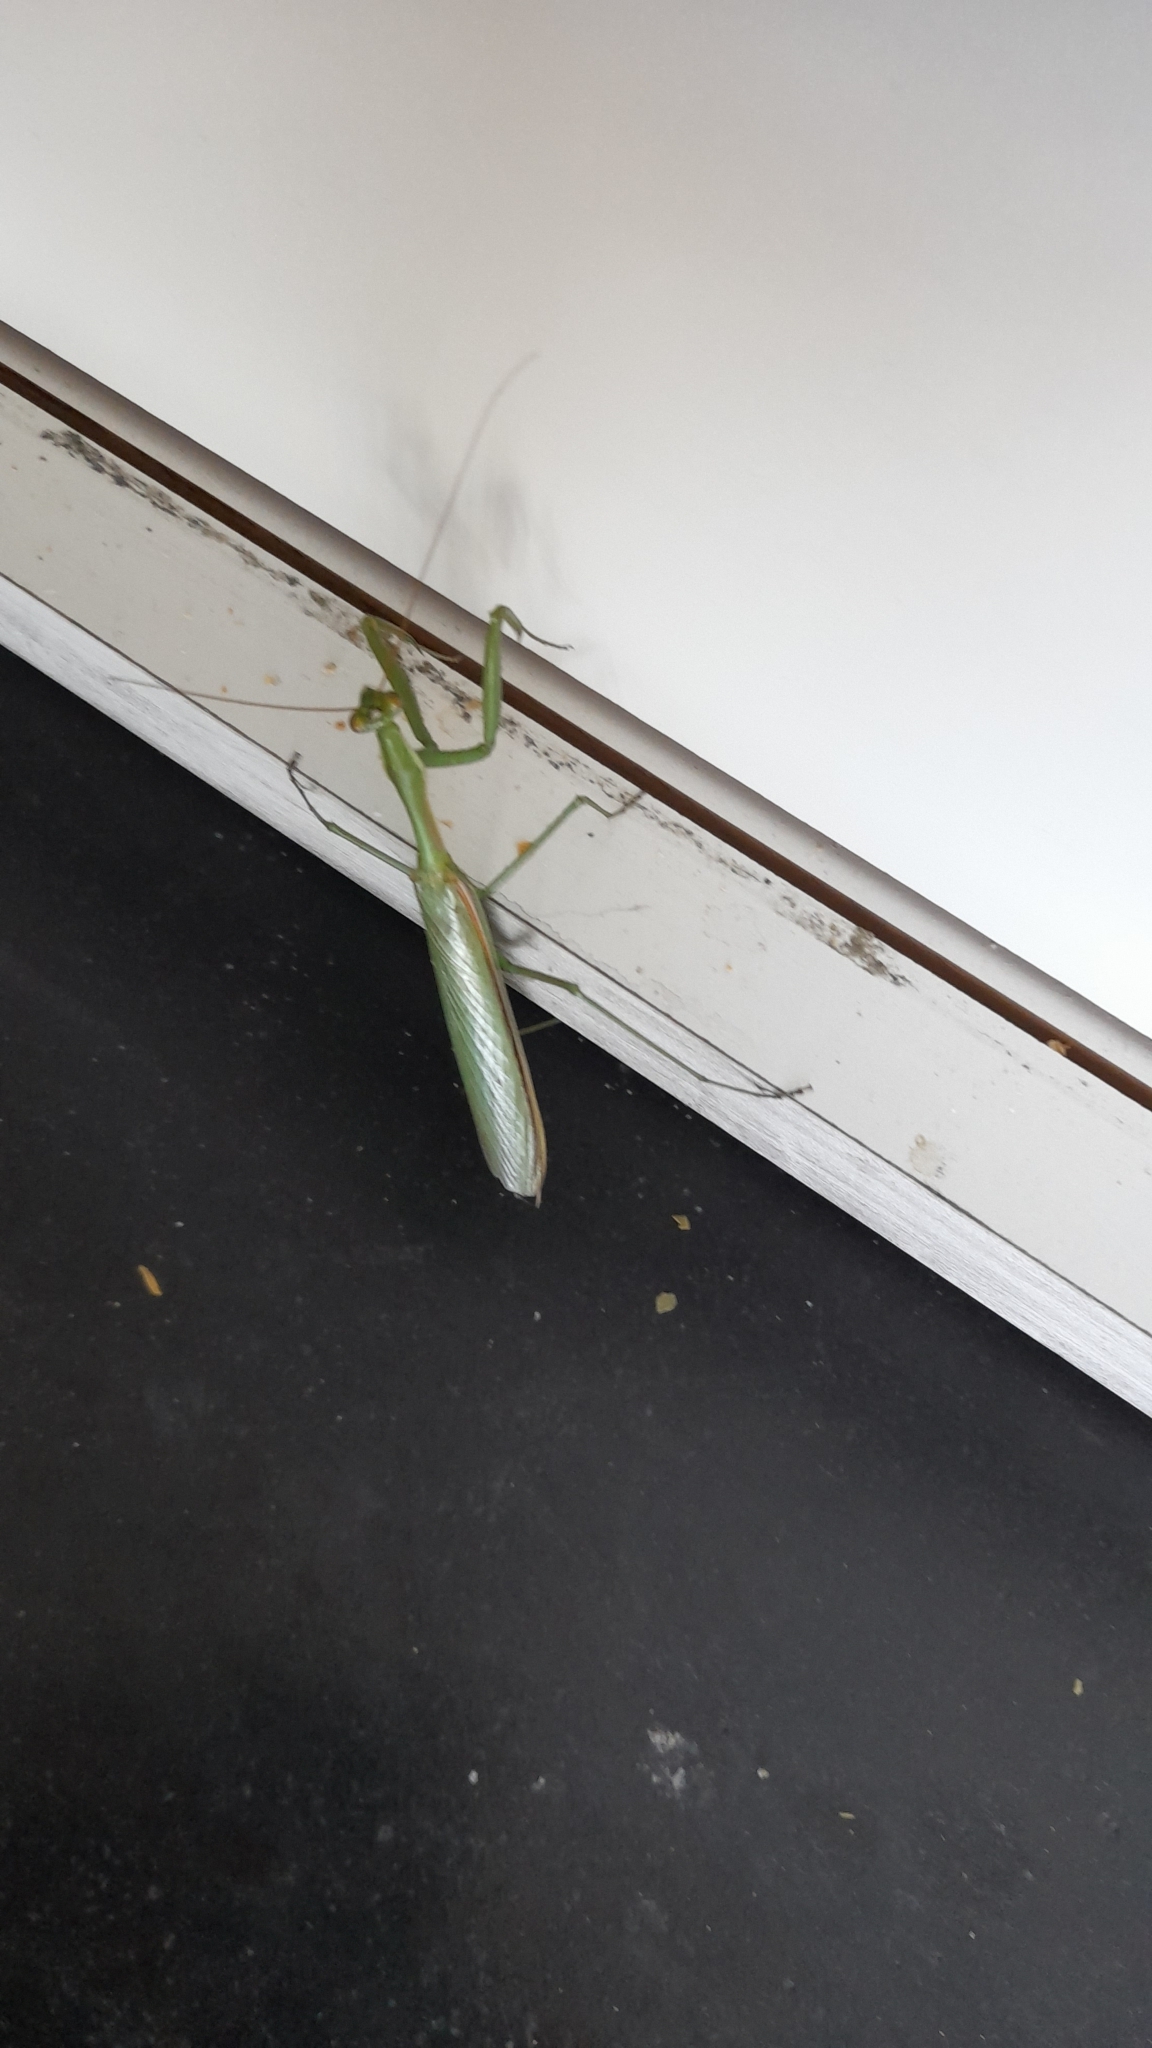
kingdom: Animalia
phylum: Arthropoda
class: Insecta
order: Mantodea
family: Coptopterygidae
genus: Coptopteryx
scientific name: Coptopteryx argentina
